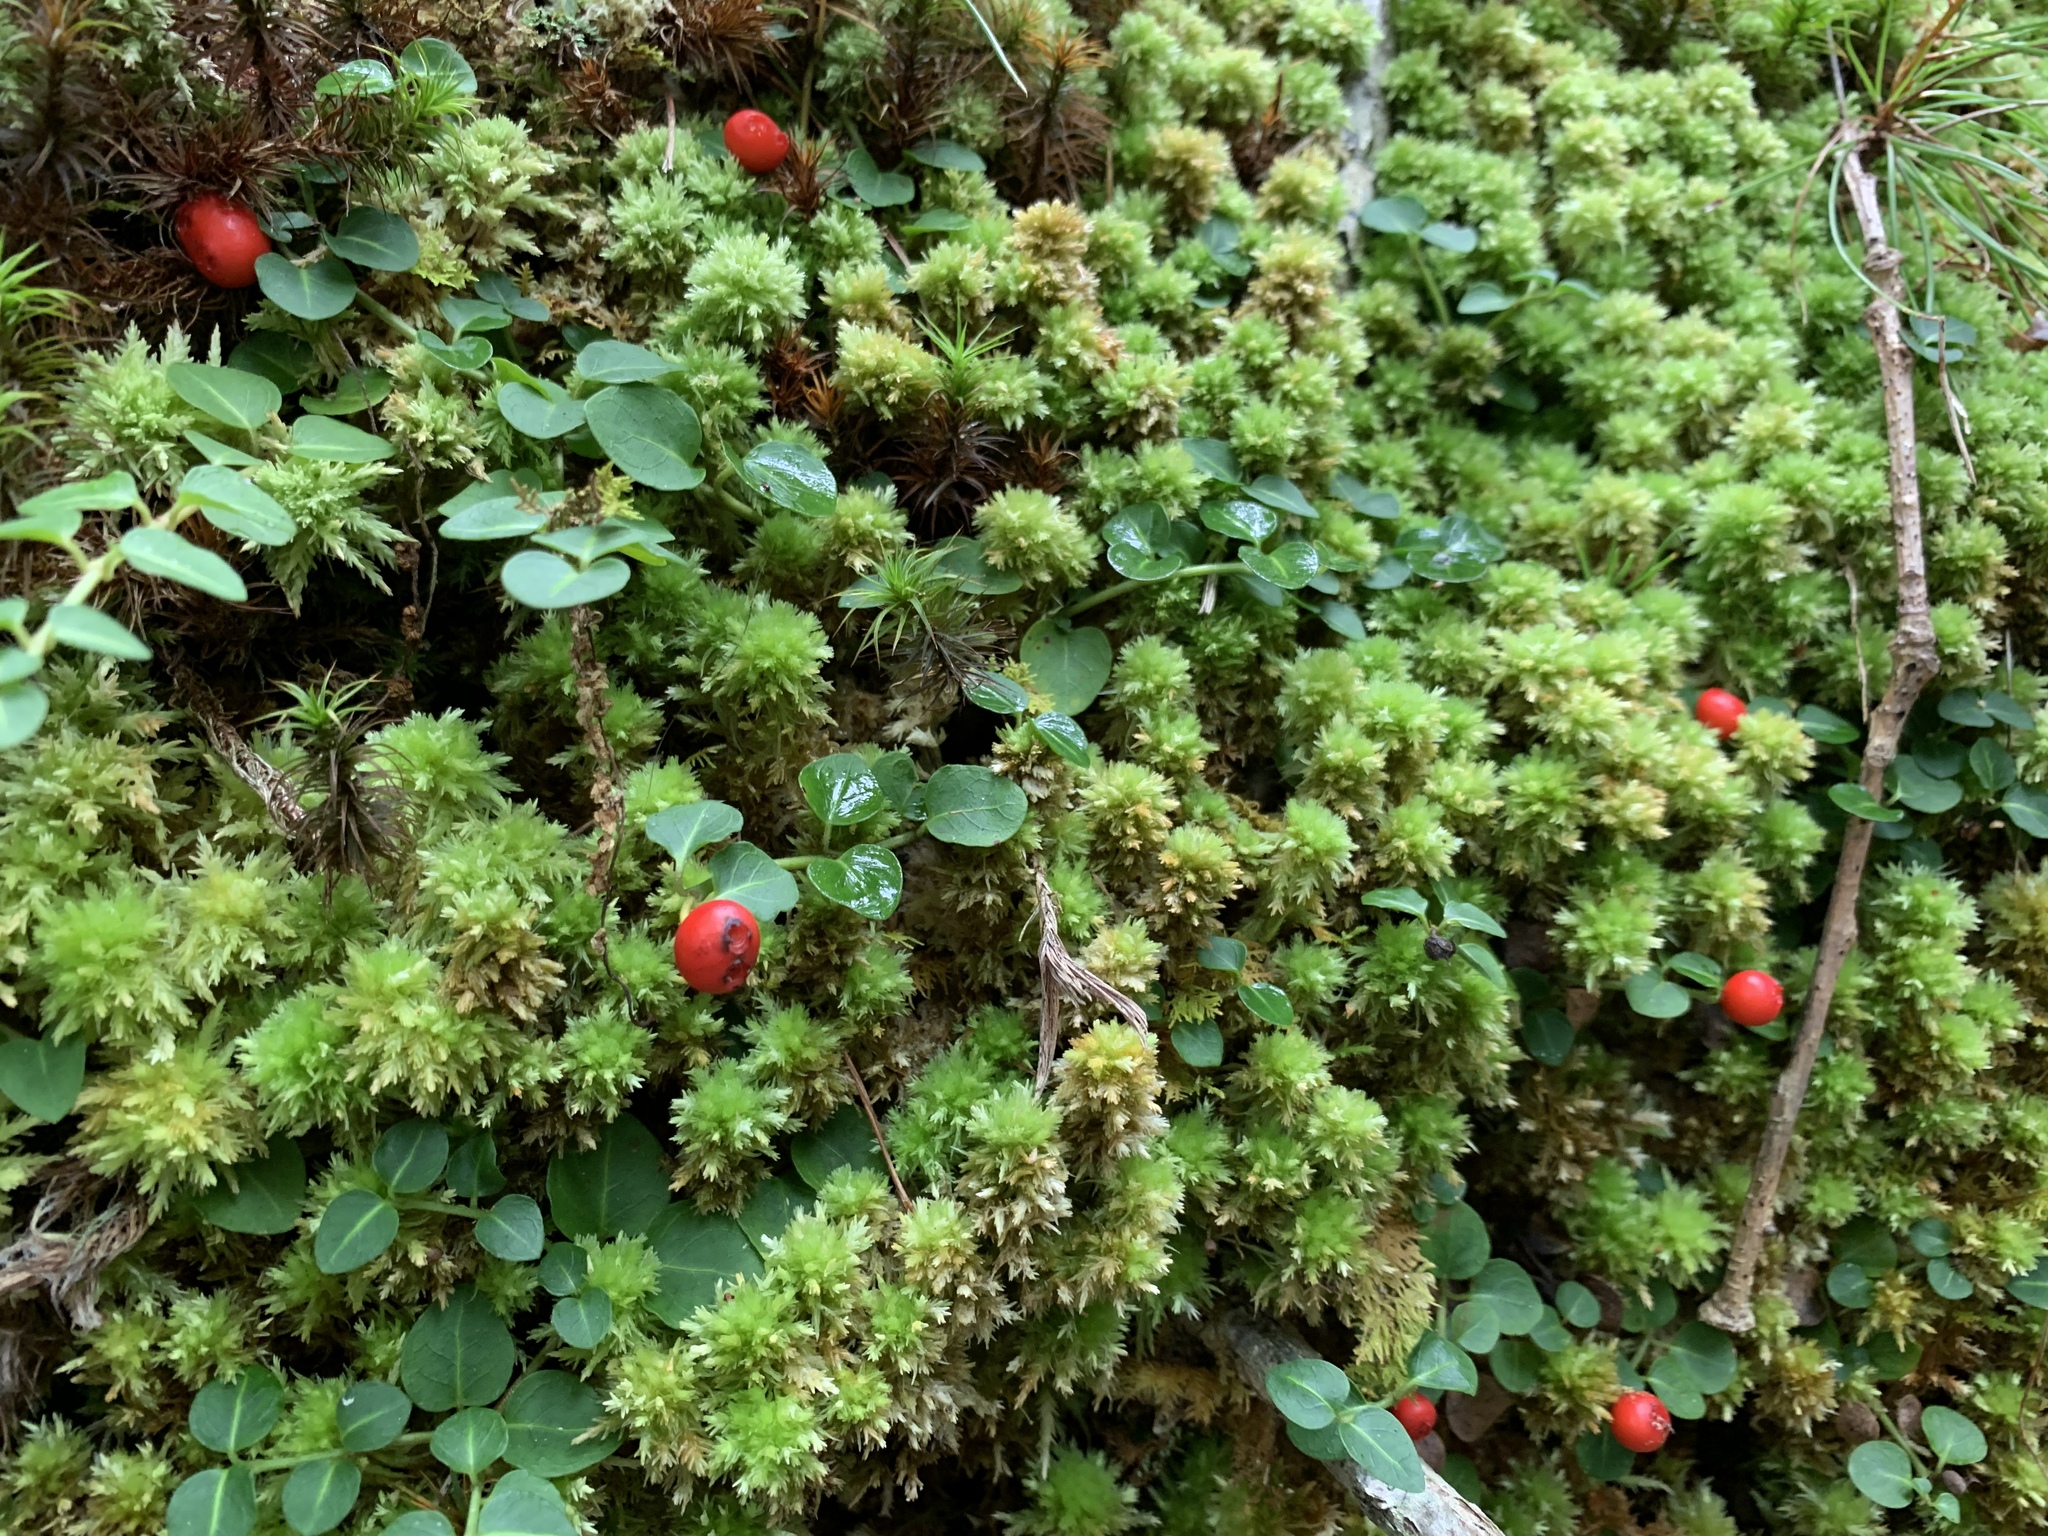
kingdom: Plantae
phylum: Tracheophyta
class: Magnoliopsida
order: Gentianales
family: Rubiaceae
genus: Mitchella
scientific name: Mitchella repens
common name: Partridge-berry
